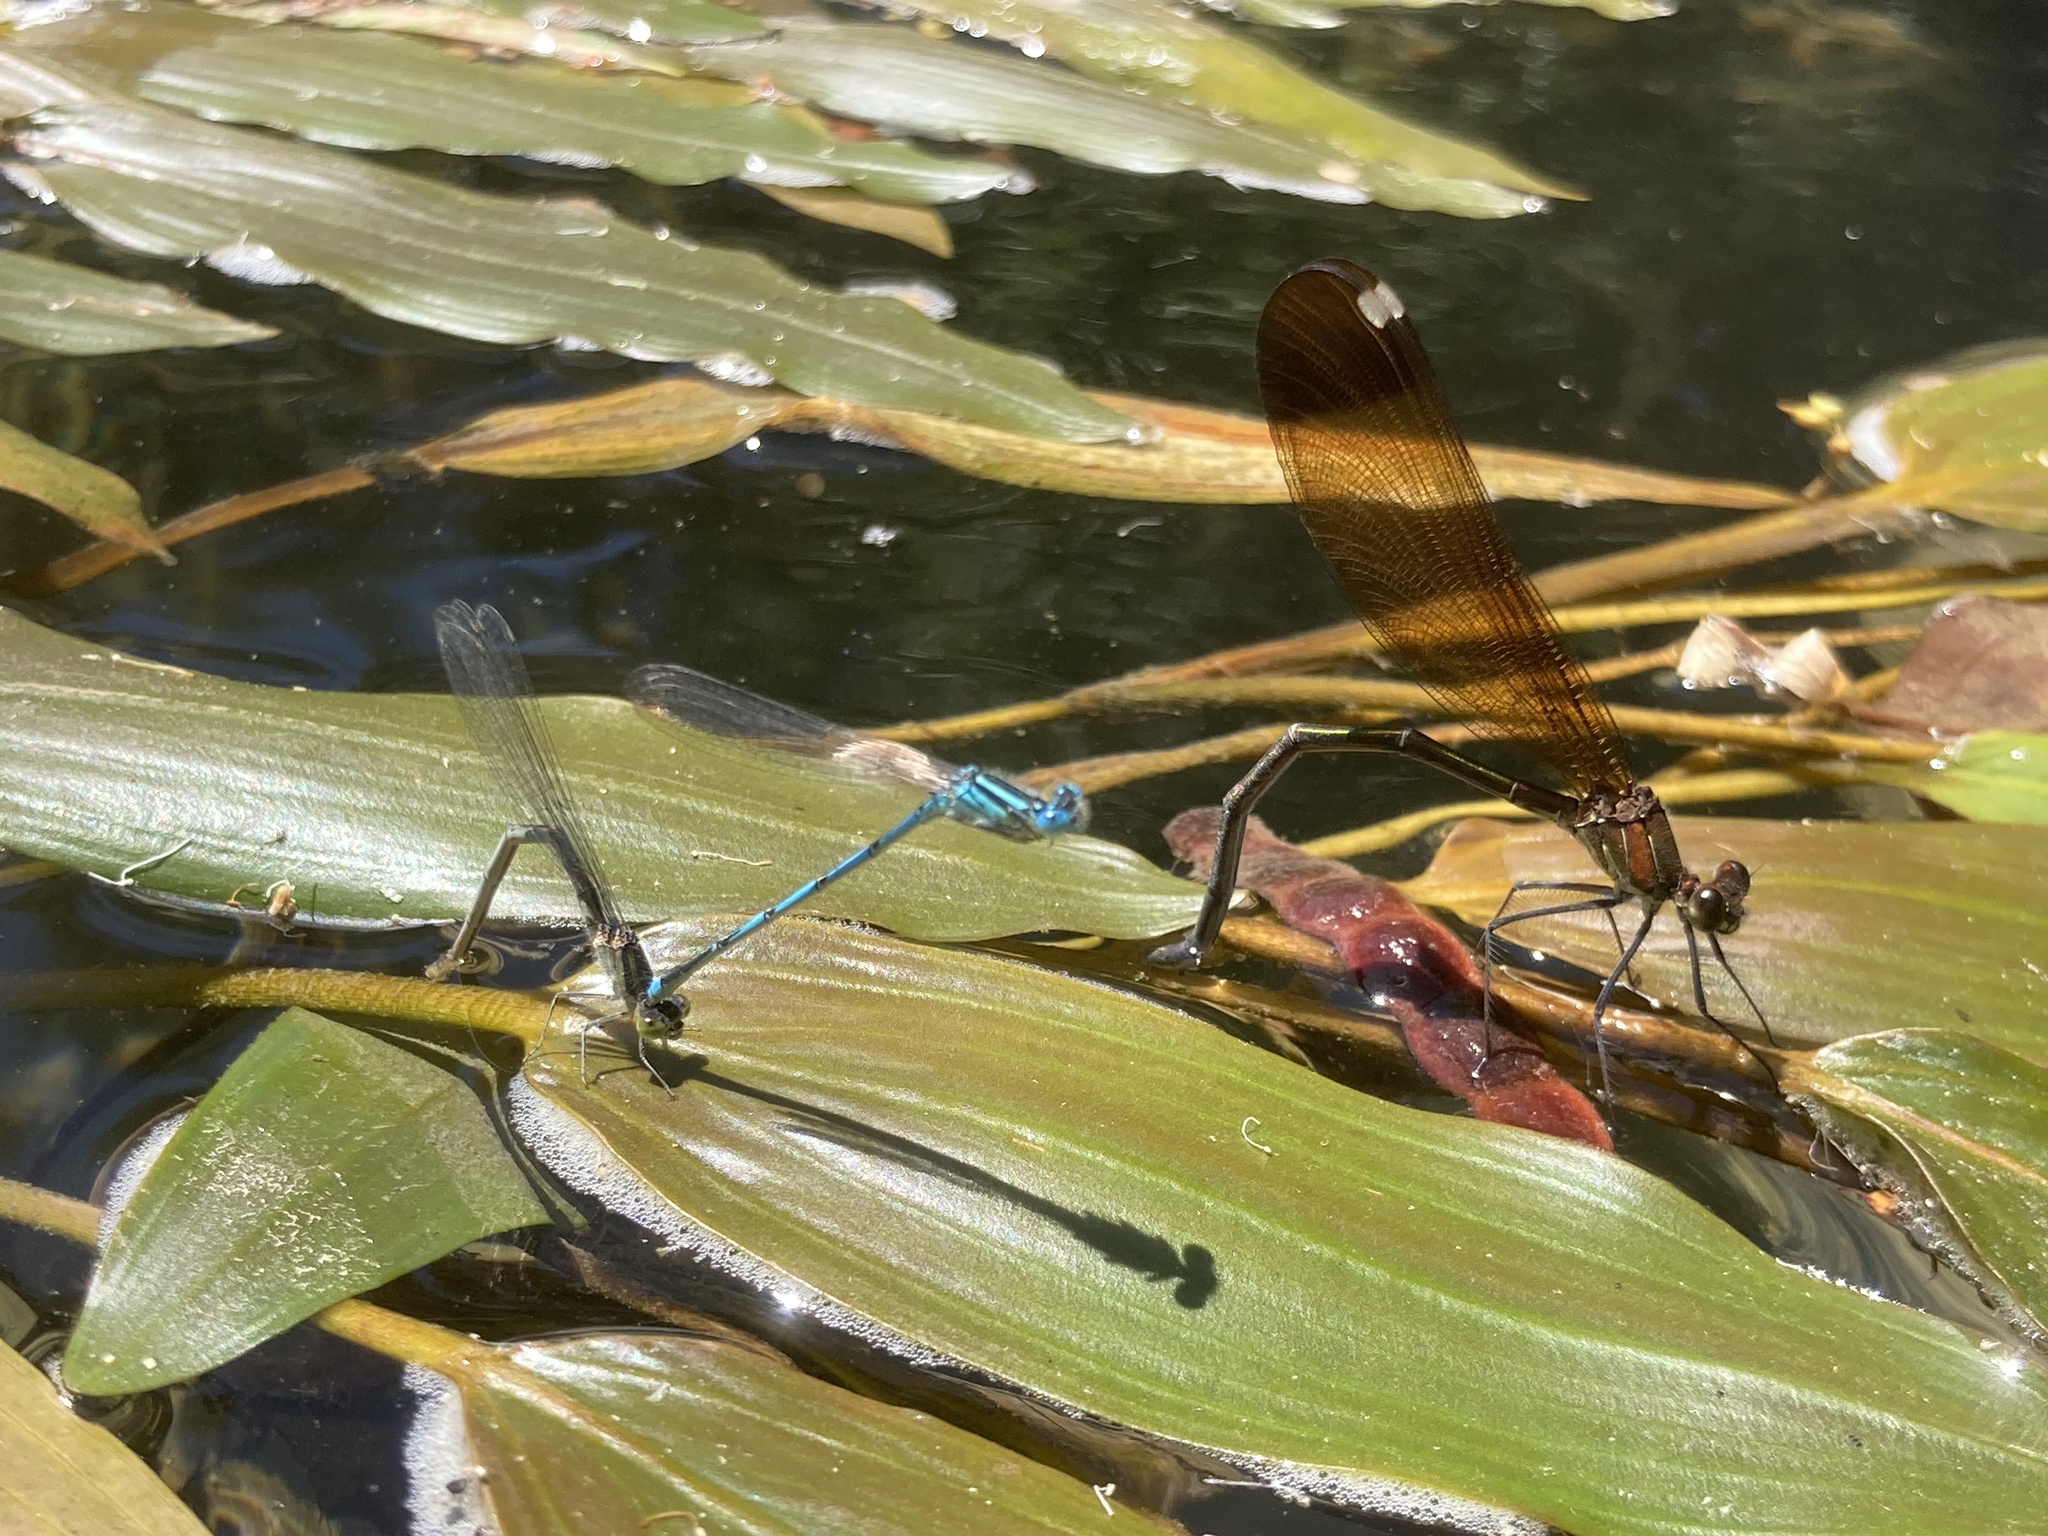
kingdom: Animalia
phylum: Arthropoda
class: Insecta
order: Odonata
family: Calopterygidae
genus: Calopteryx
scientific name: Calopteryx haemorrhoidalis
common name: Copper demoiselle
